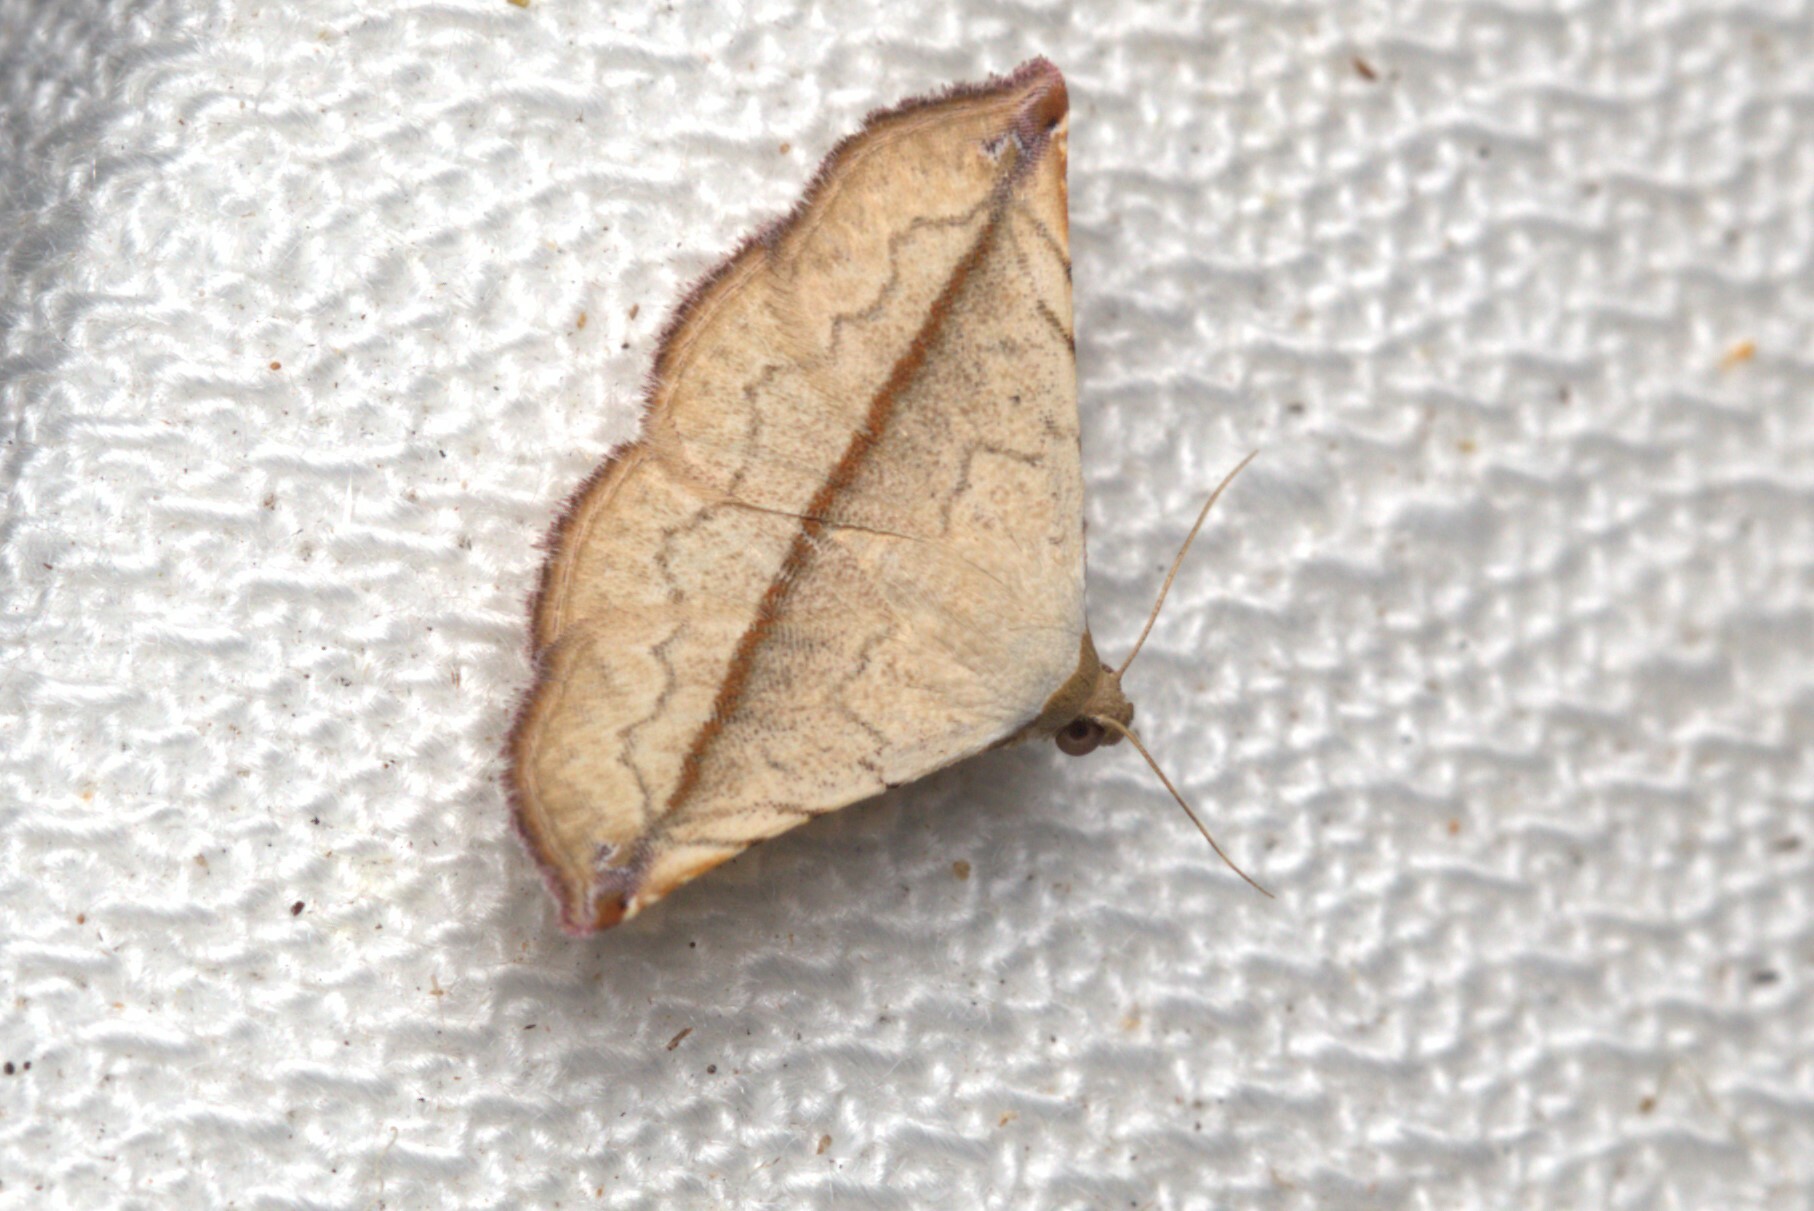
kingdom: Animalia
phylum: Arthropoda
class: Insecta
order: Lepidoptera
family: Noctuidae
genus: Eublemma
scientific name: Eublemma perversicolor
